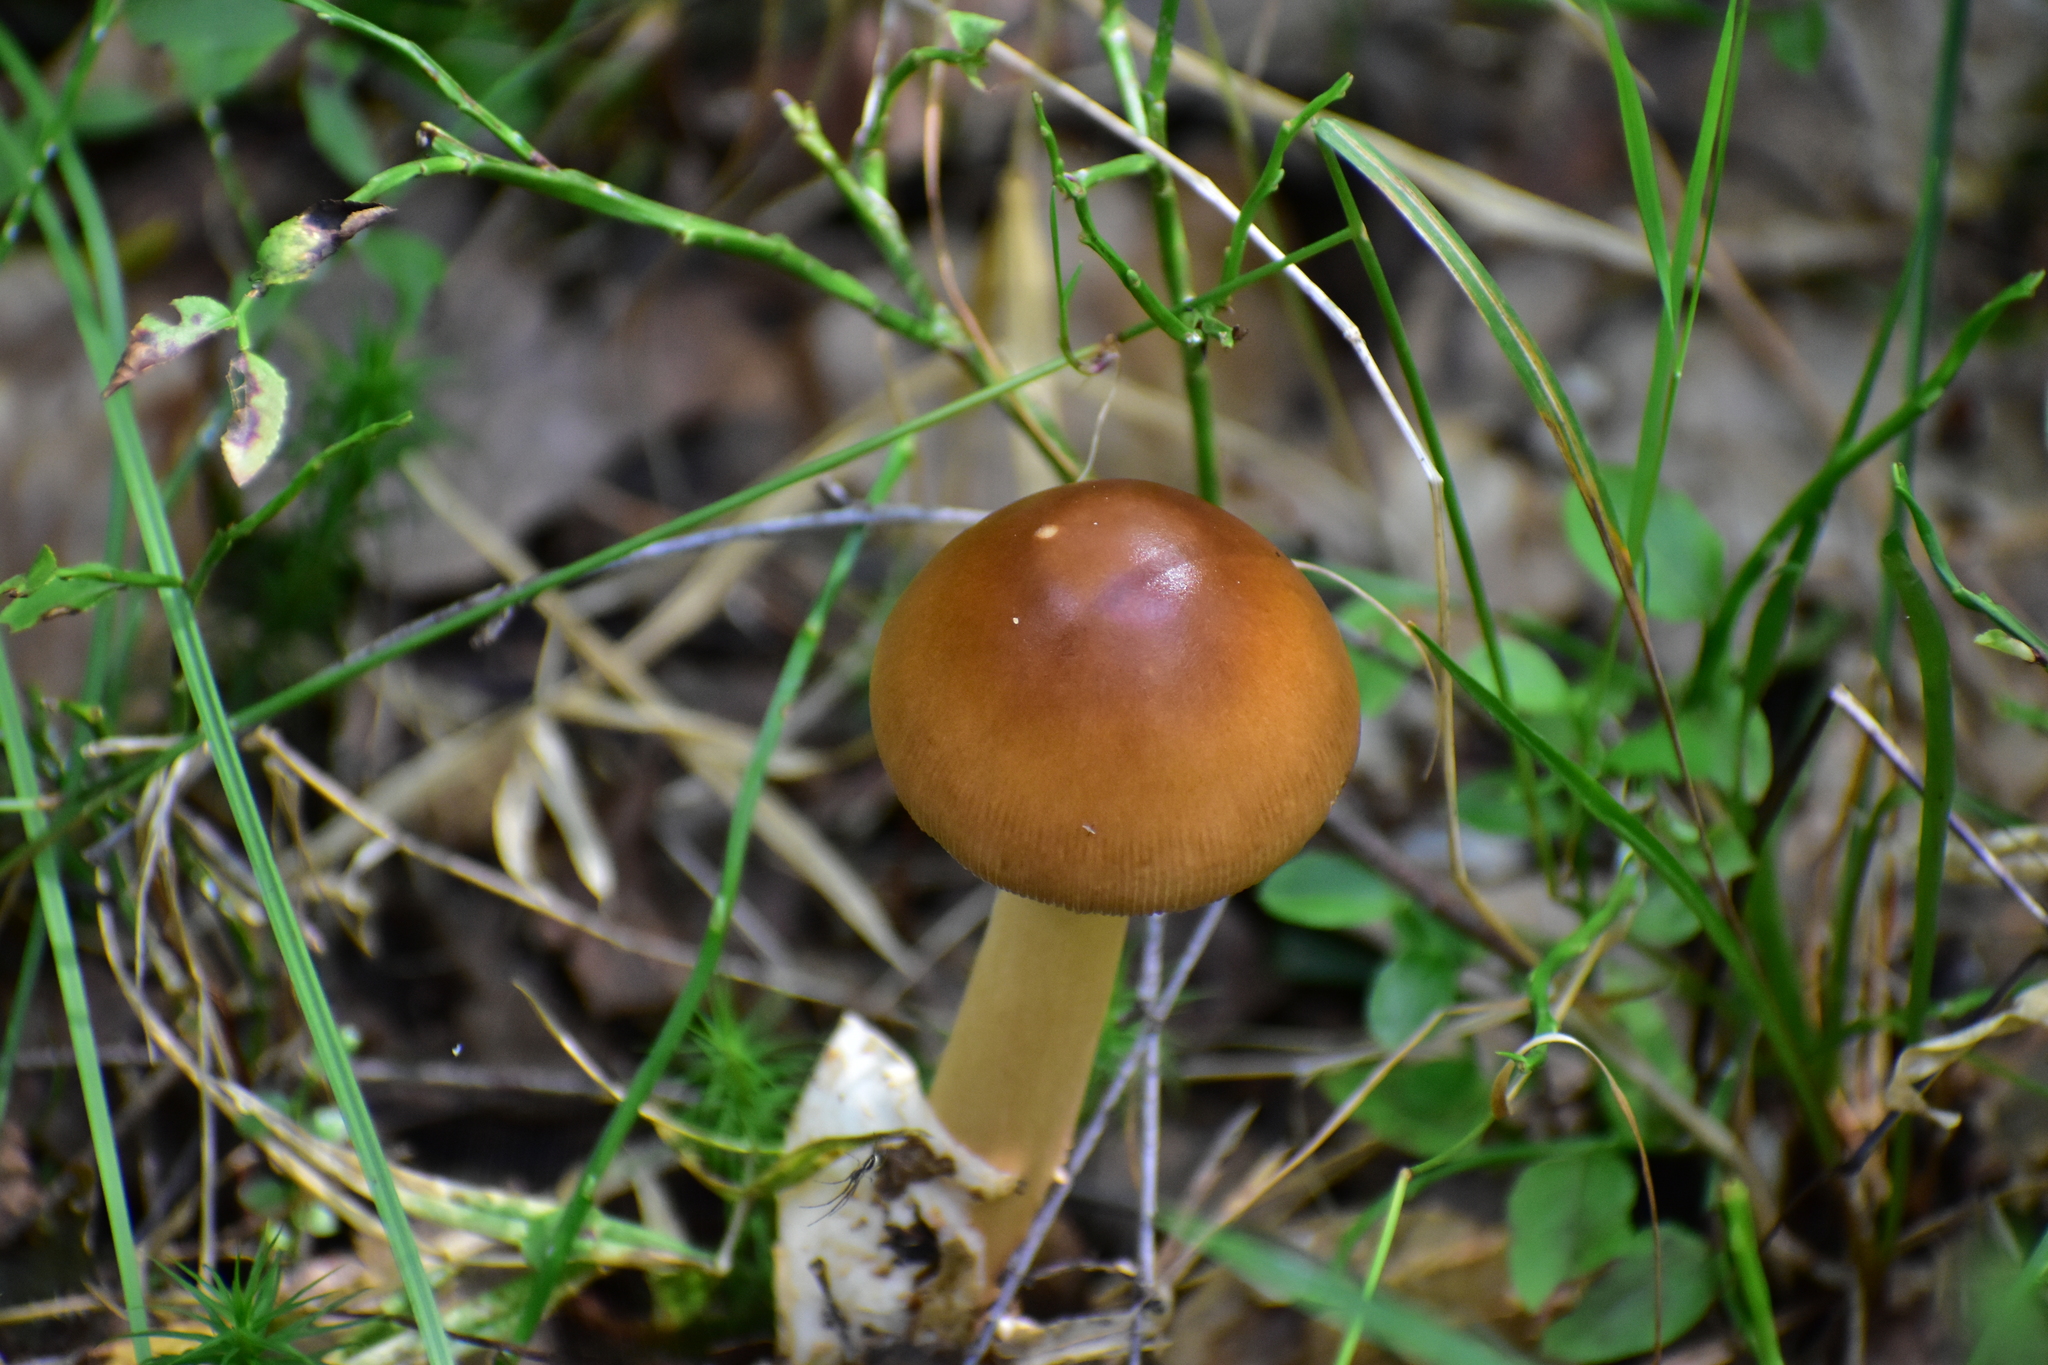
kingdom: Fungi
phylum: Basidiomycota
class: Agaricomycetes
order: Agaricales
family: Amanitaceae
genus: Amanita
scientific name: Amanita fulva
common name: Tawny grisette
